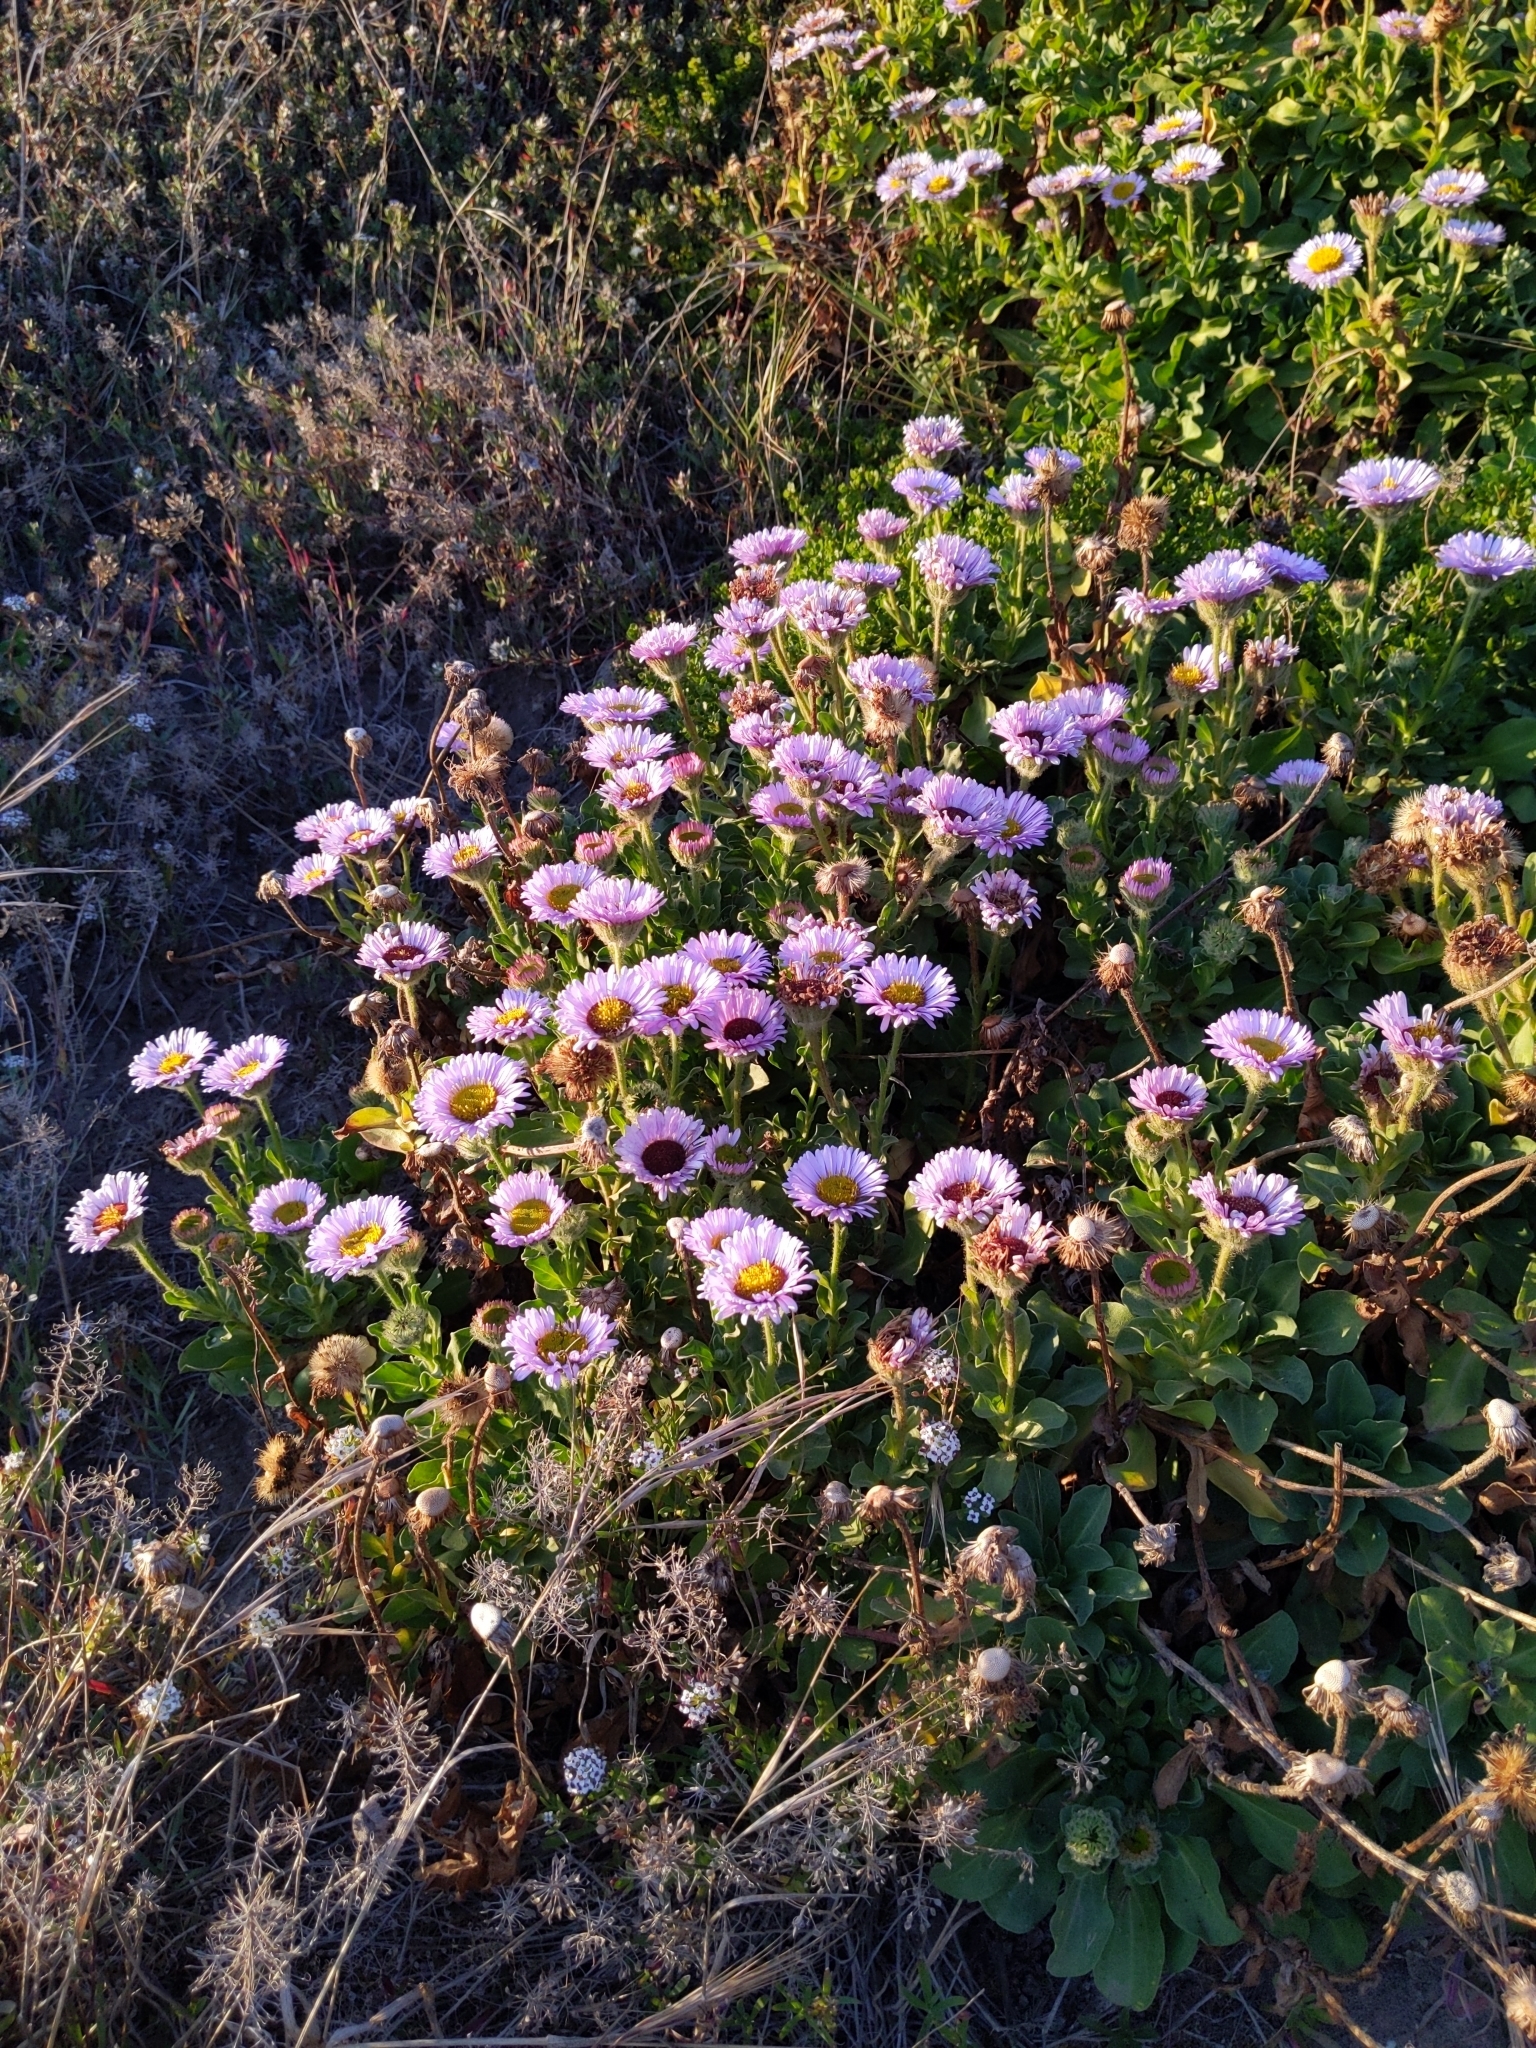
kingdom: Plantae
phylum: Tracheophyta
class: Magnoliopsida
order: Asterales
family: Asteraceae
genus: Erigeron
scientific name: Erigeron glaucus
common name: Seaside daisy
